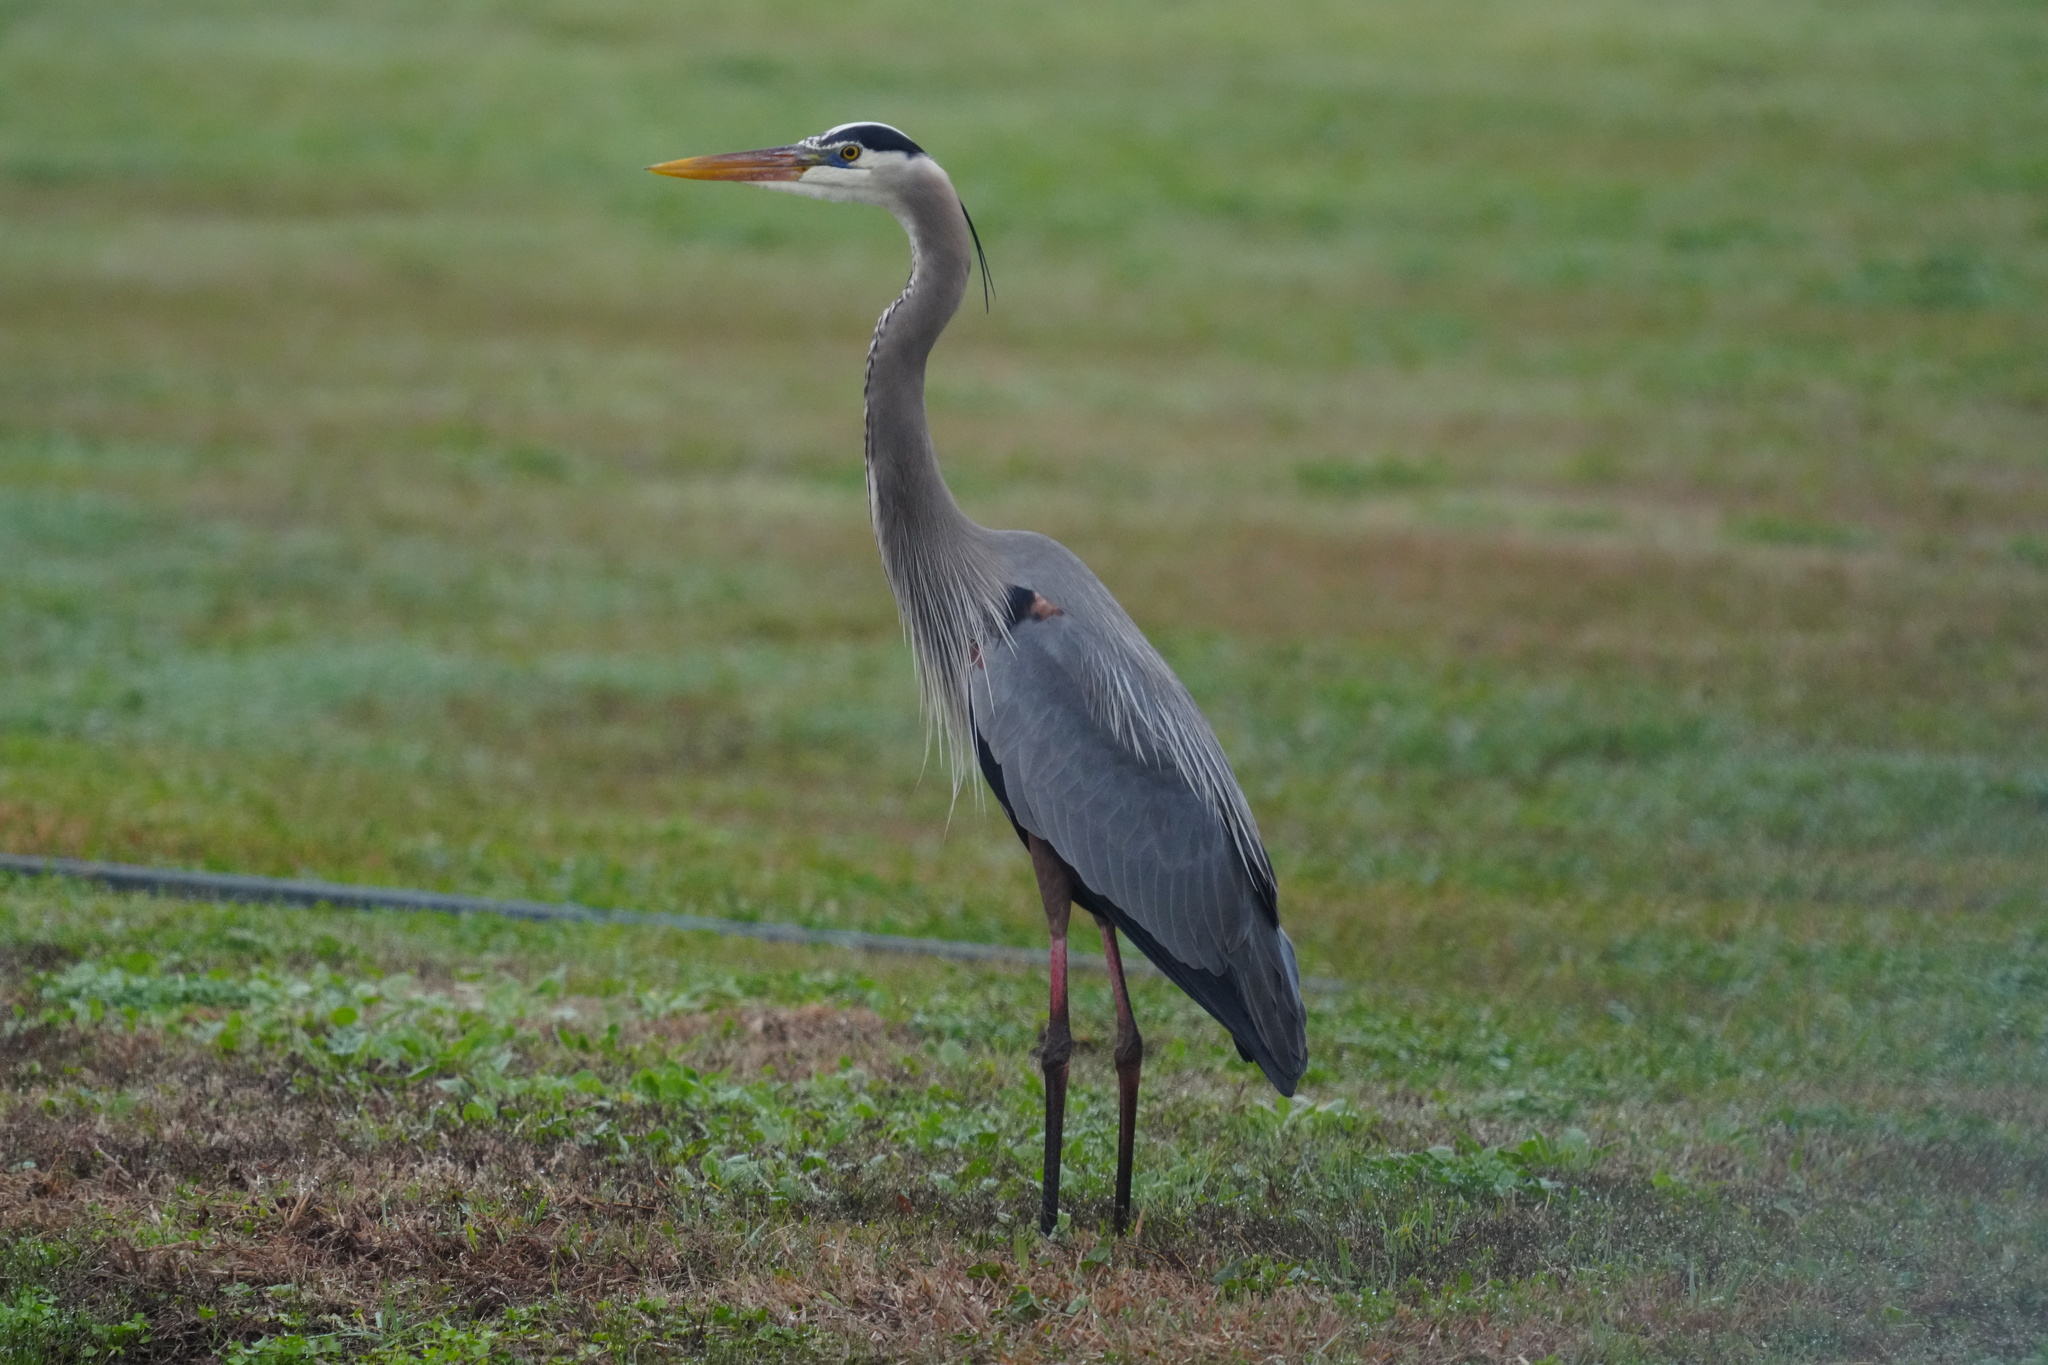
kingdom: Animalia
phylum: Chordata
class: Aves
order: Pelecaniformes
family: Ardeidae
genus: Ardea
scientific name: Ardea herodias
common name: Great blue heron
